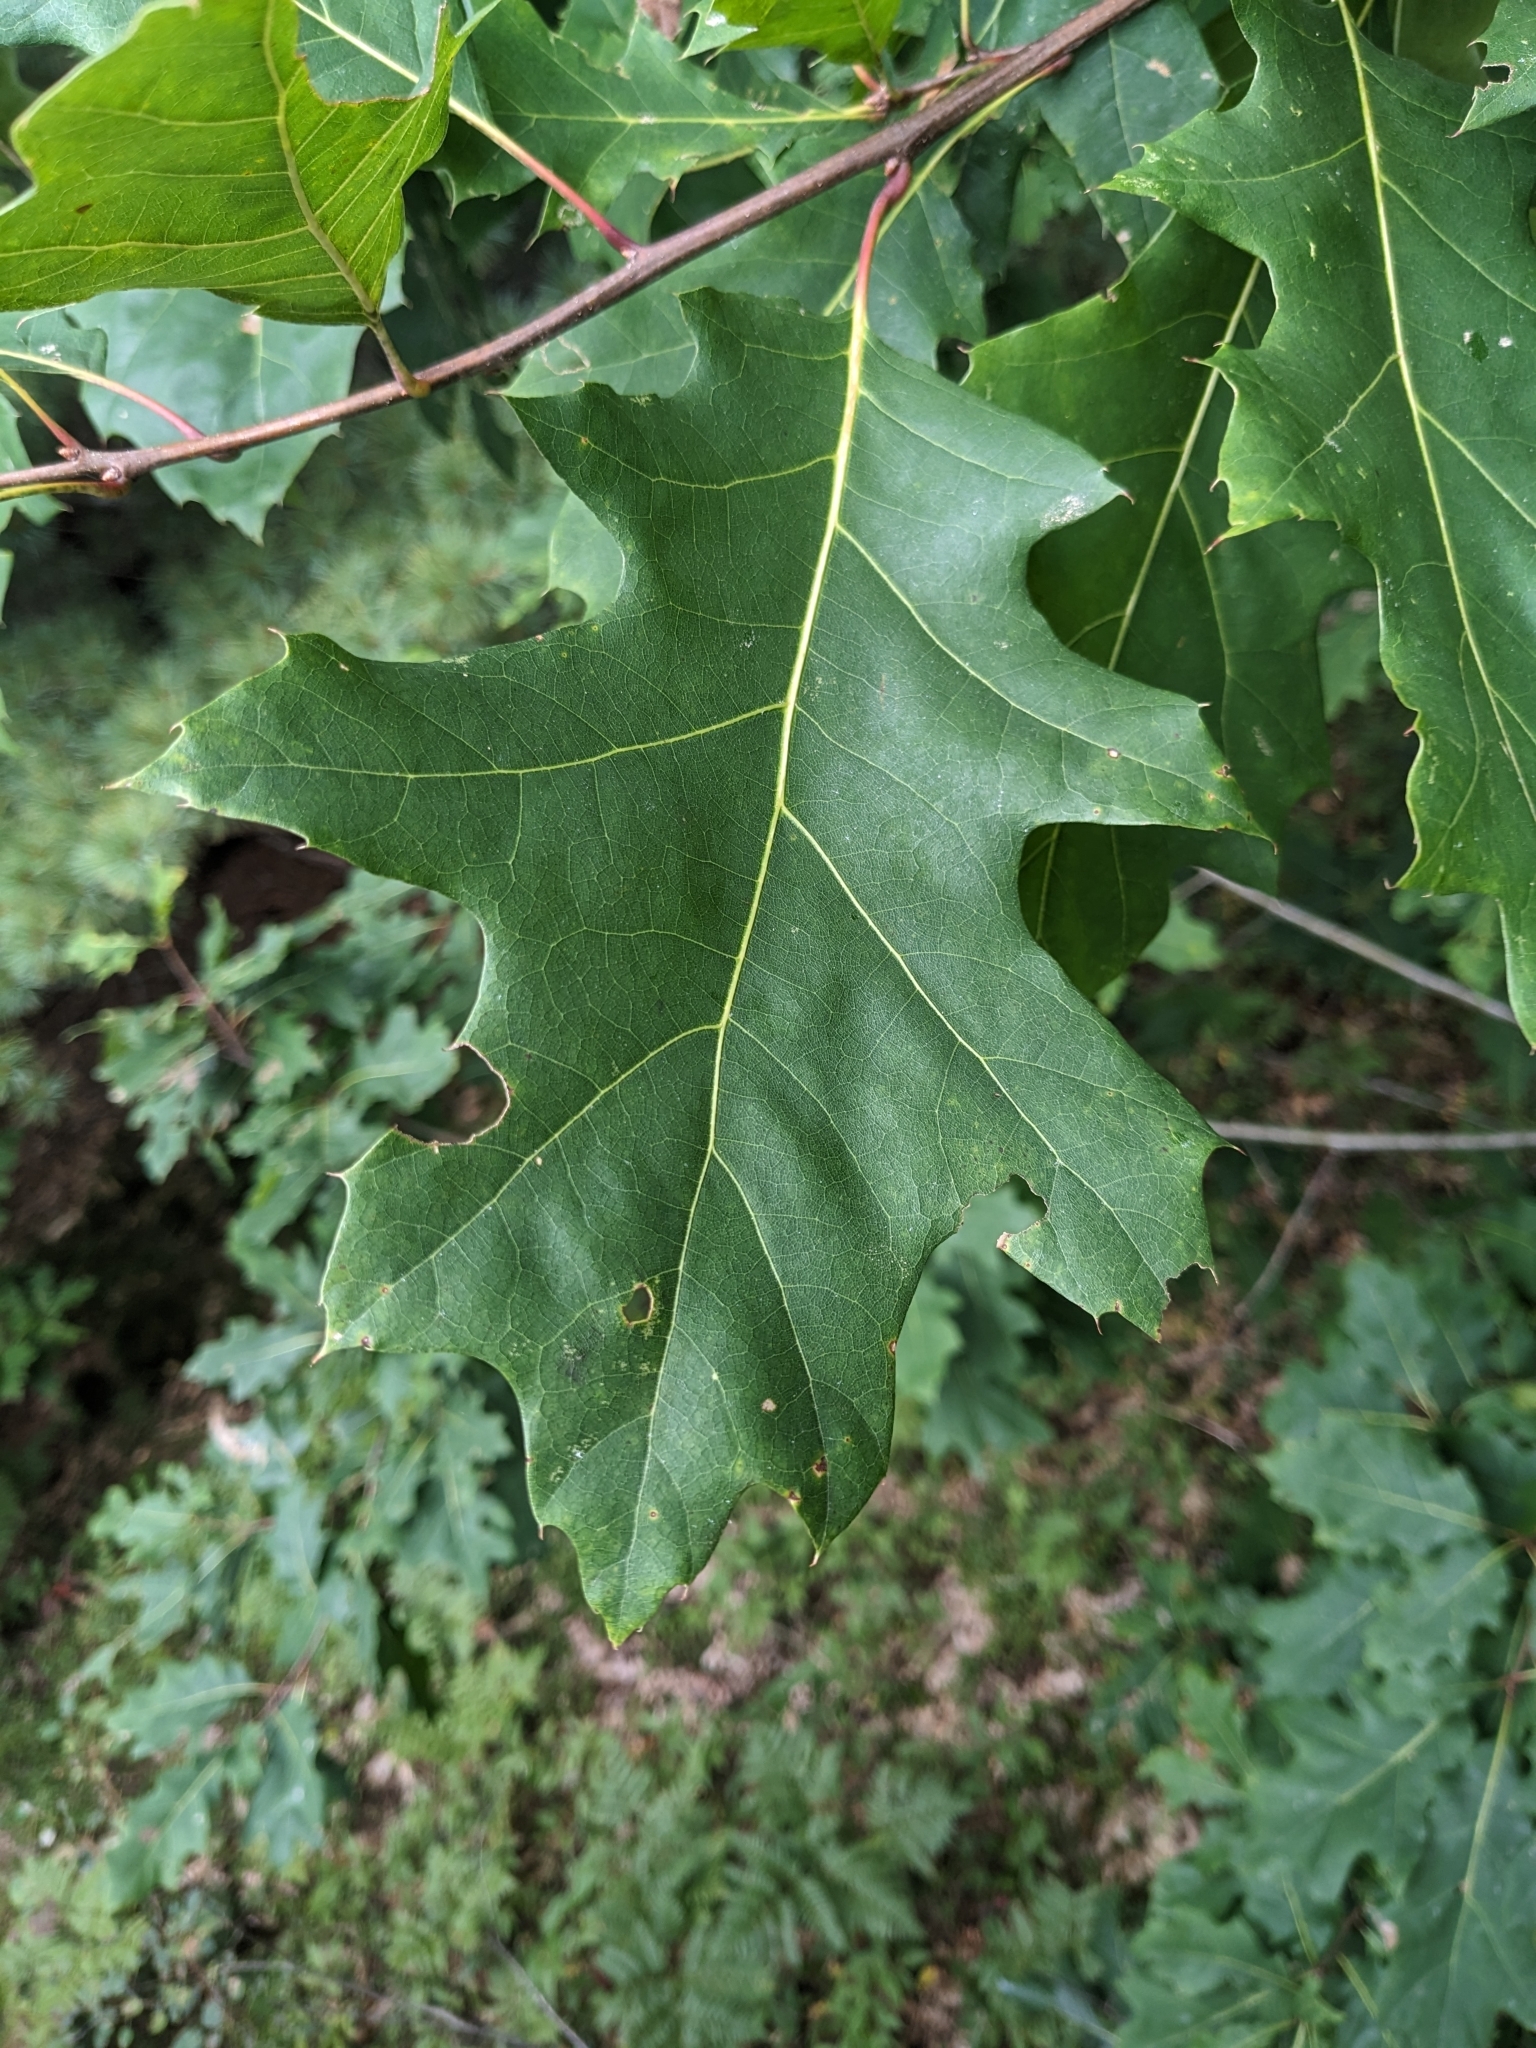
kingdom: Plantae
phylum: Tracheophyta
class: Magnoliopsida
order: Fagales
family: Fagaceae
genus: Quercus
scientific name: Quercus rubra
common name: Red oak
